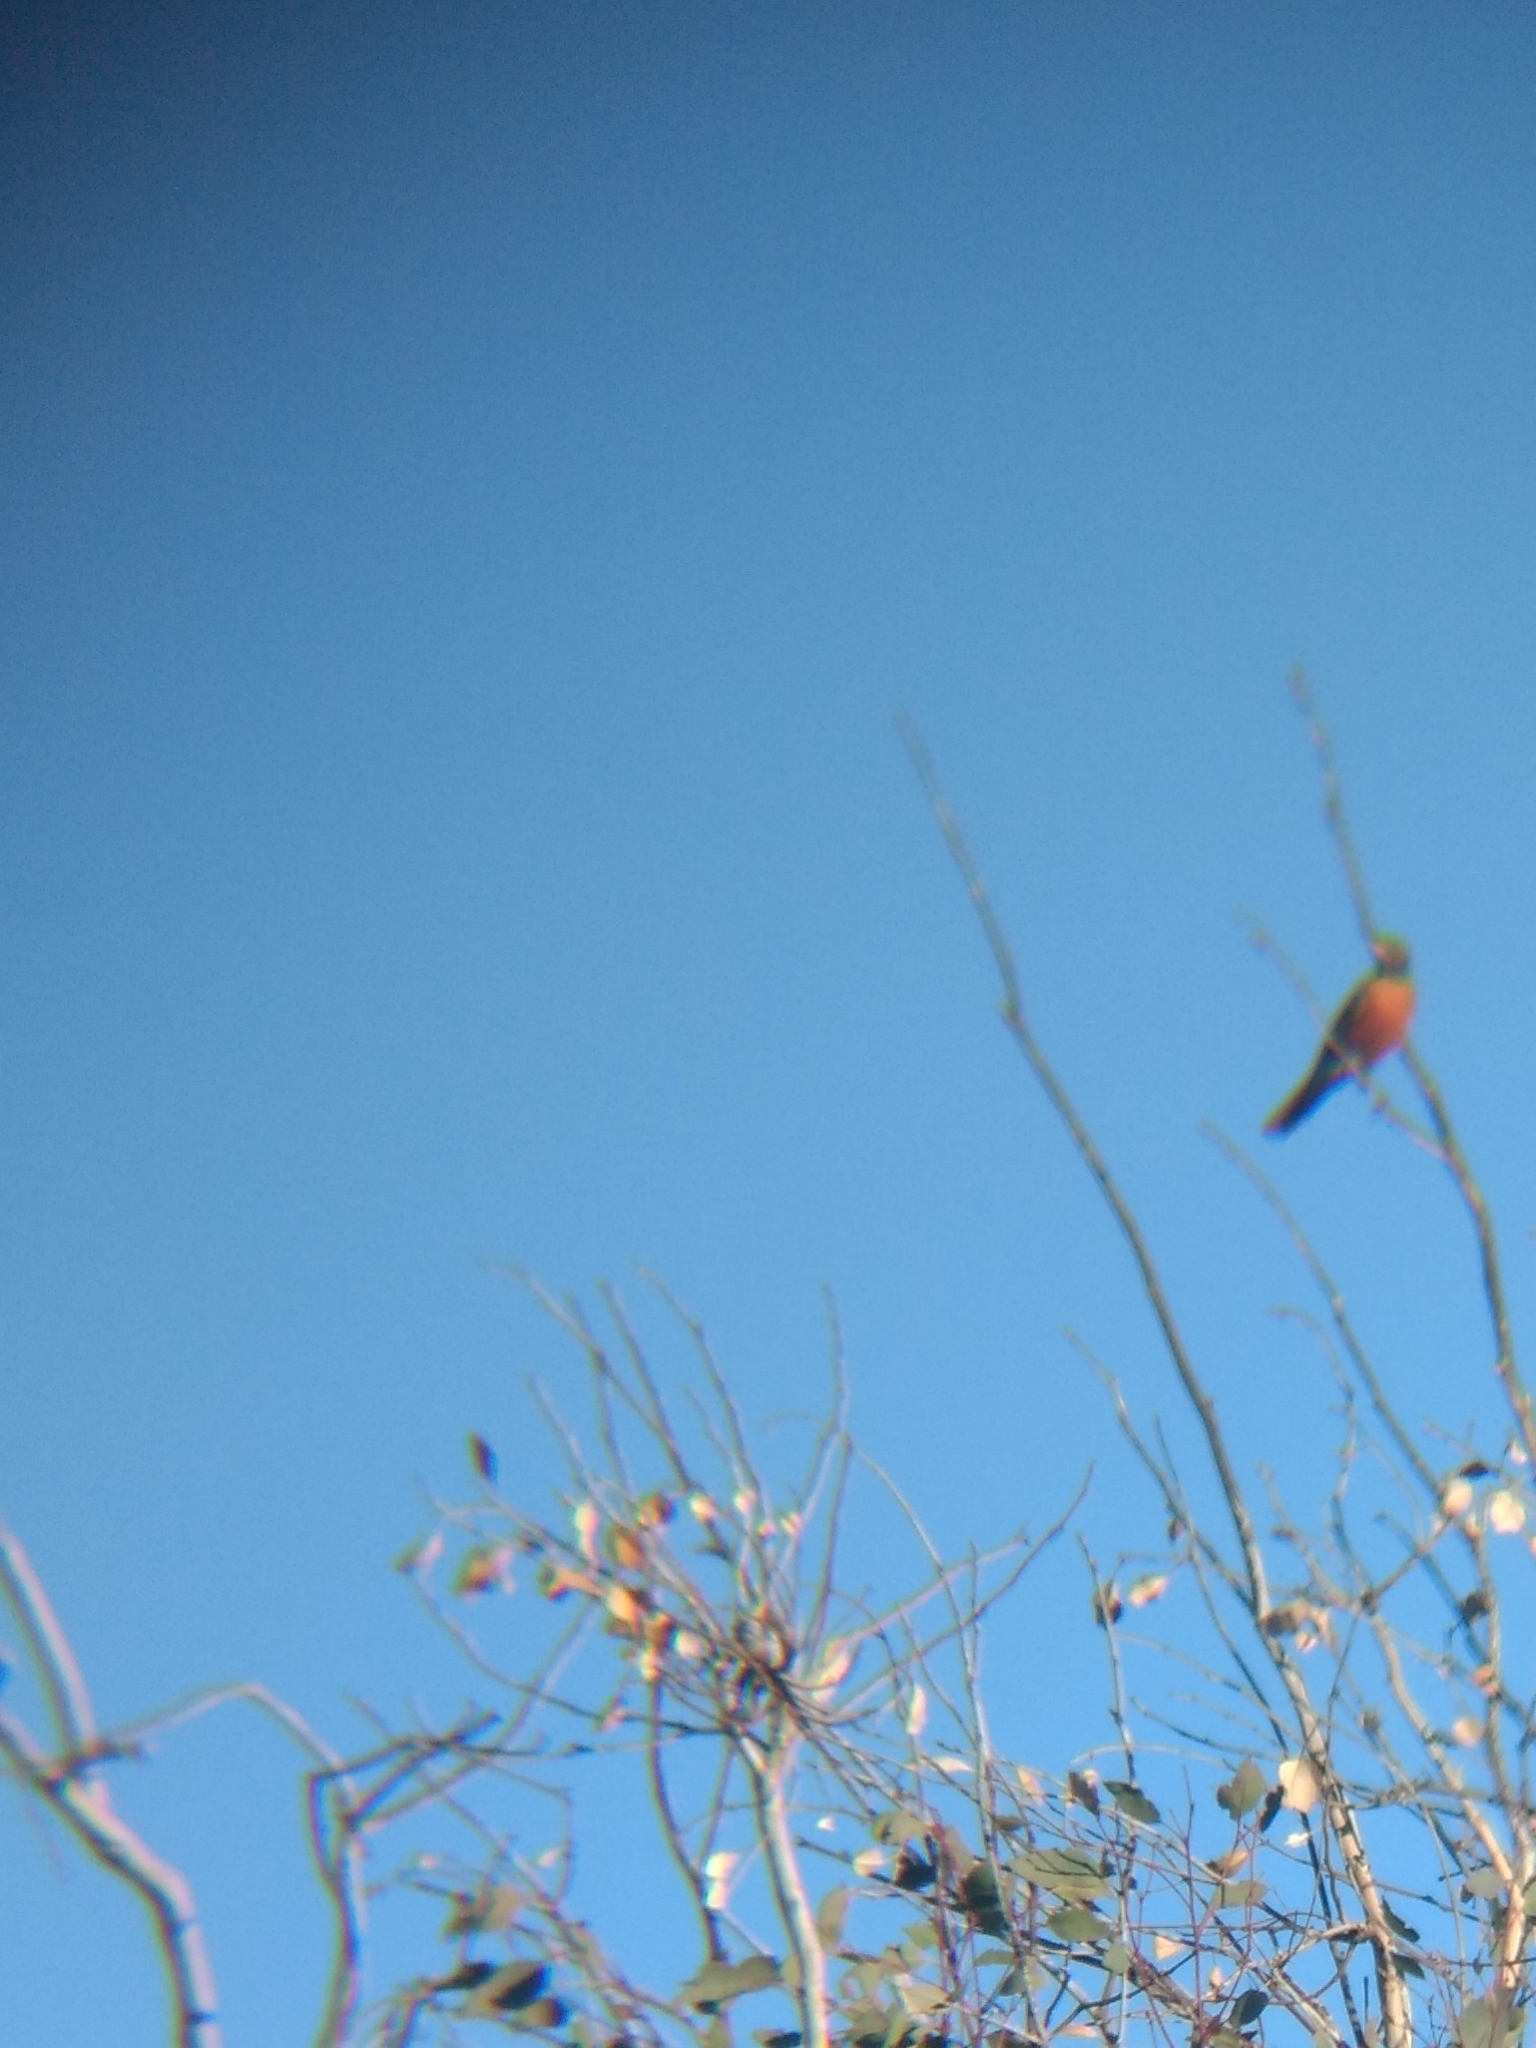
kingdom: Animalia
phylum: Chordata
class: Aves
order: Passeriformes
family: Turdidae
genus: Turdus
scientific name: Turdus migratorius
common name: American robin
